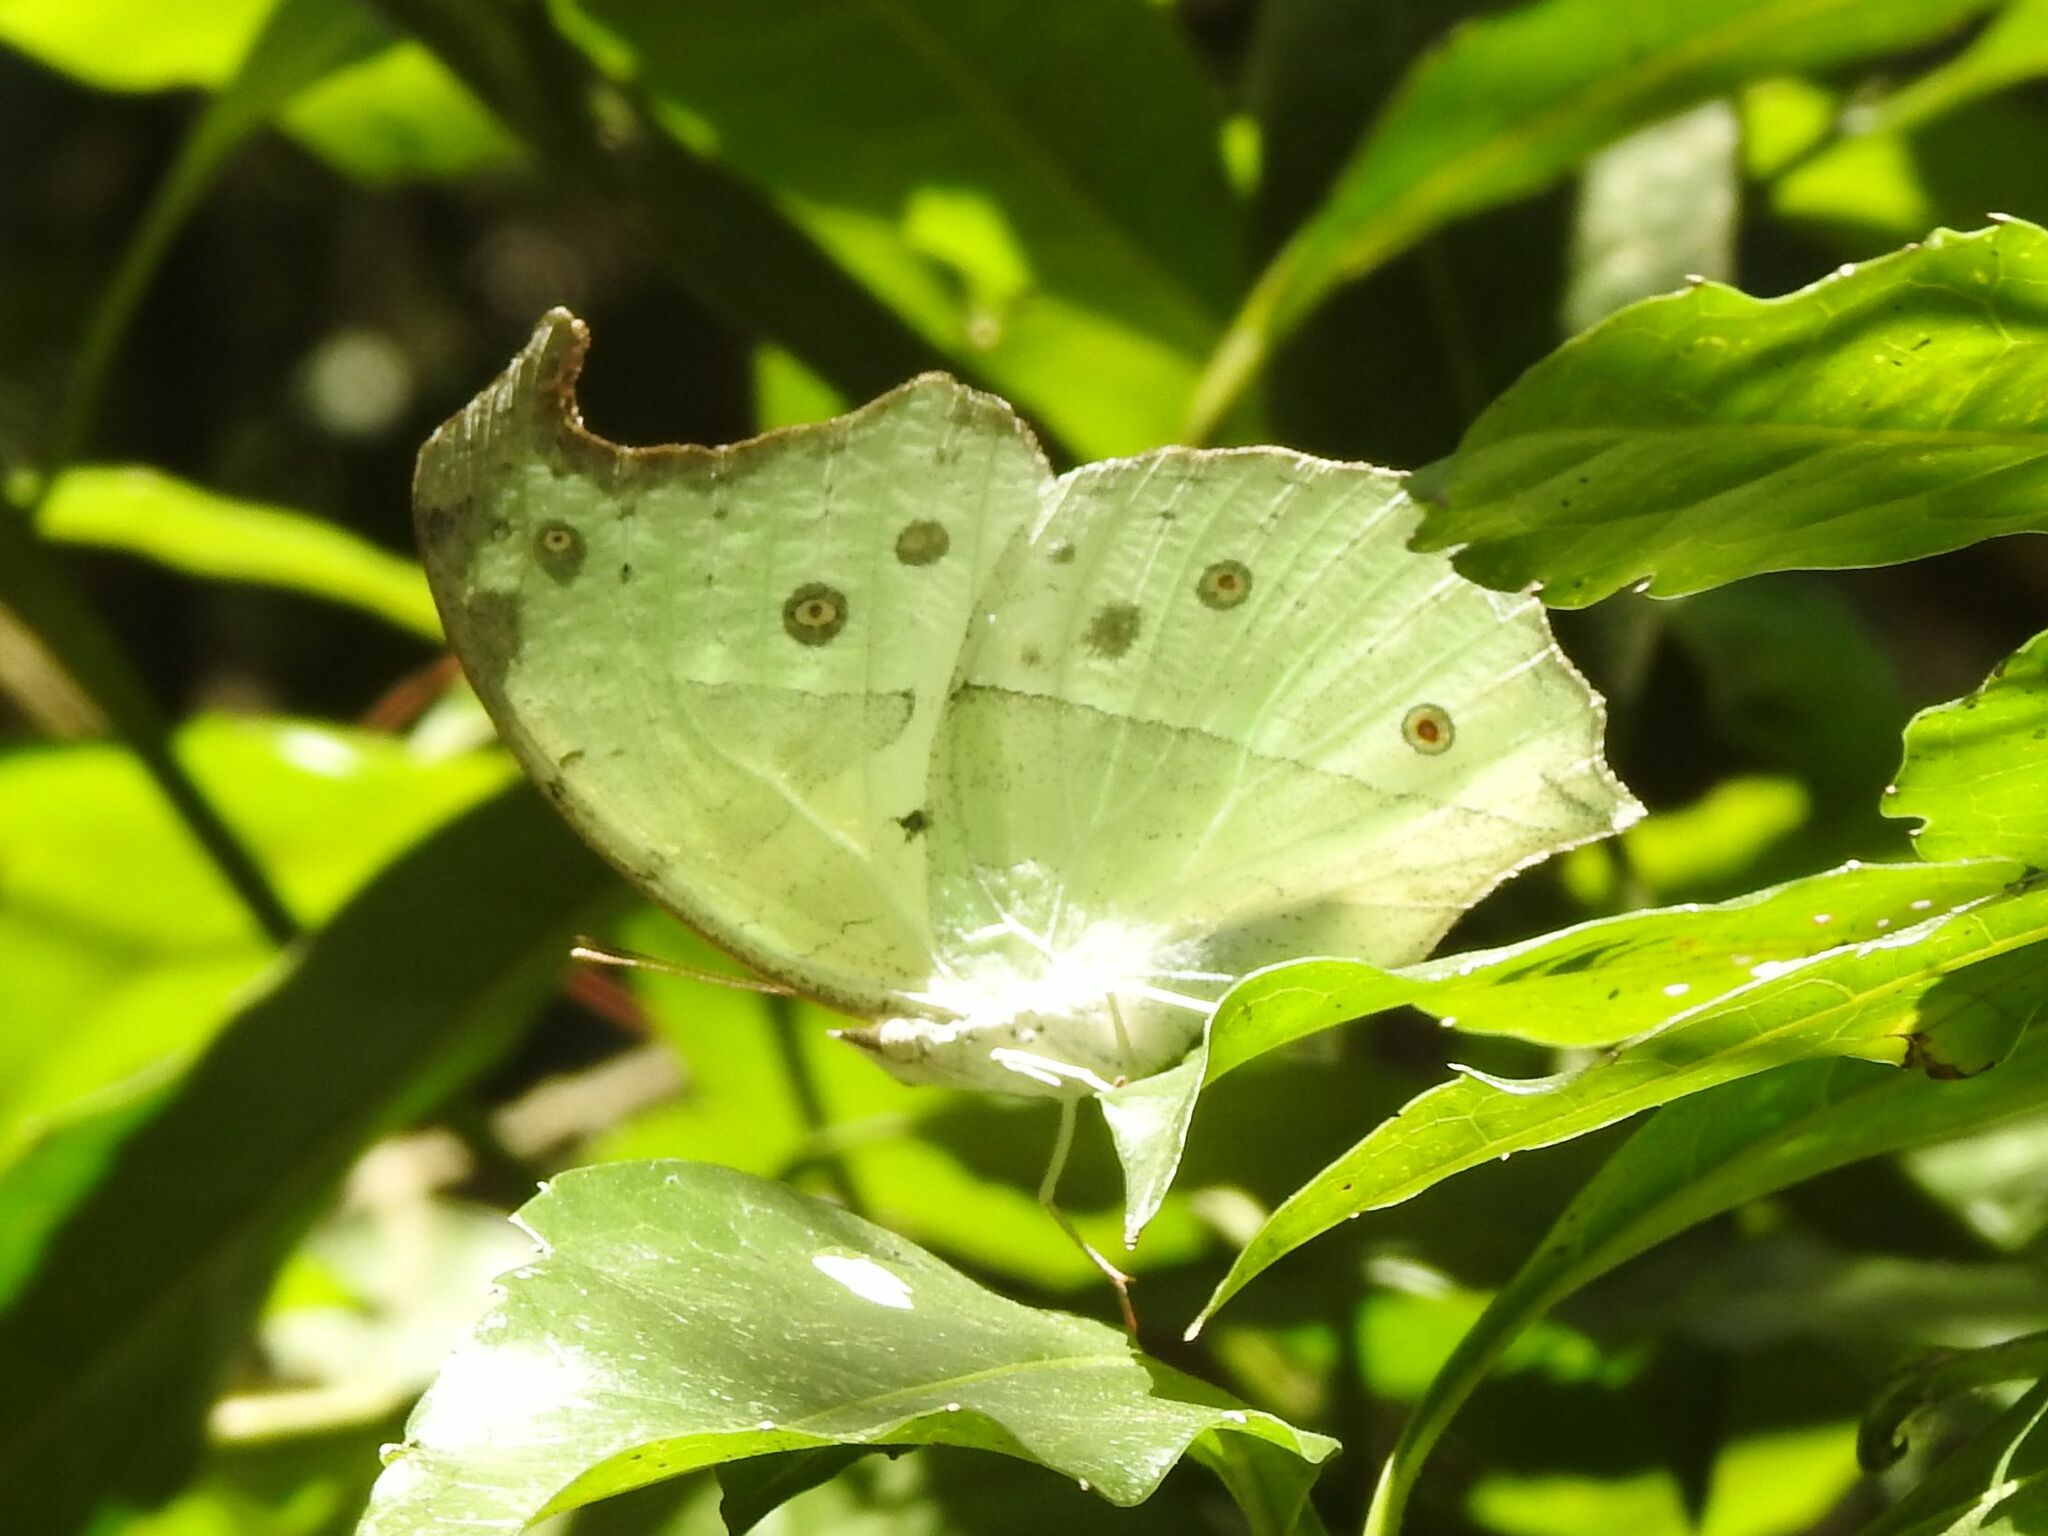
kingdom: Animalia
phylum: Arthropoda
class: Insecta
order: Lepidoptera
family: Nymphalidae
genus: Salamis
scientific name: Salamis Protogoniomorpha parhassus
